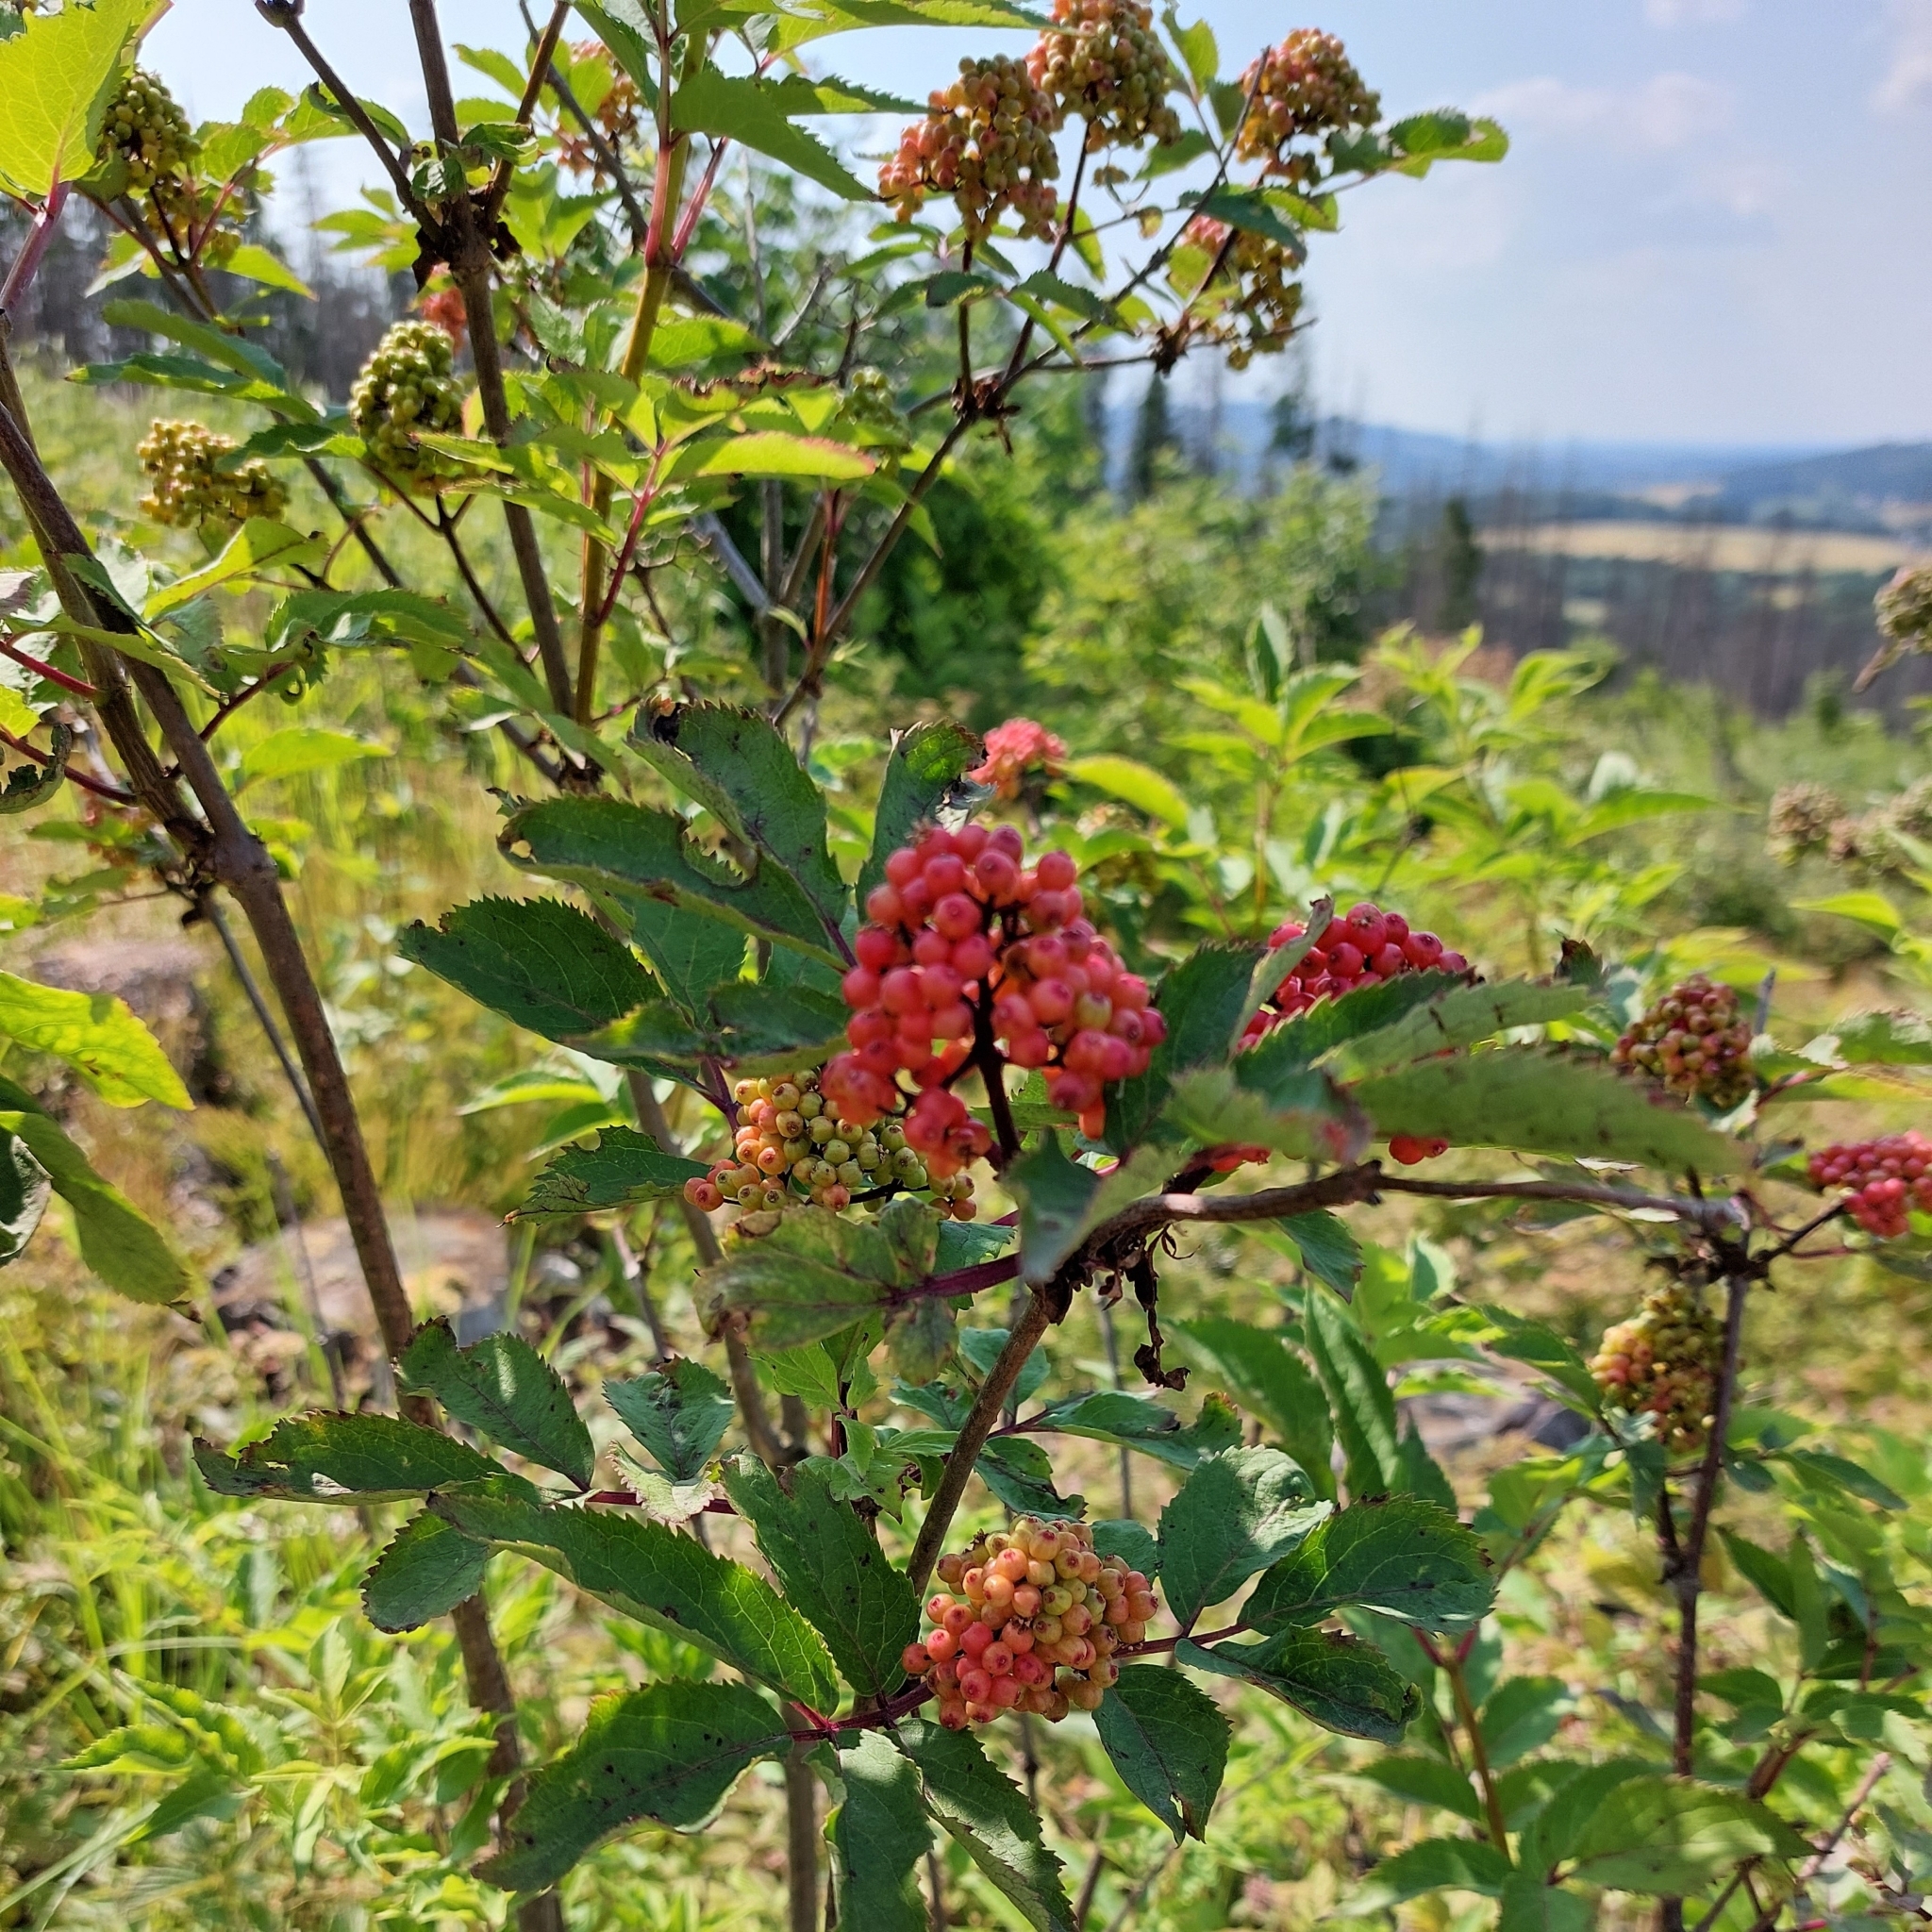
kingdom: Plantae
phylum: Tracheophyta
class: Magnoliopsida
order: Dipsacales
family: Viburnaceae
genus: Sambucus
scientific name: Sambucus racemosa
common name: Red-berried elder
